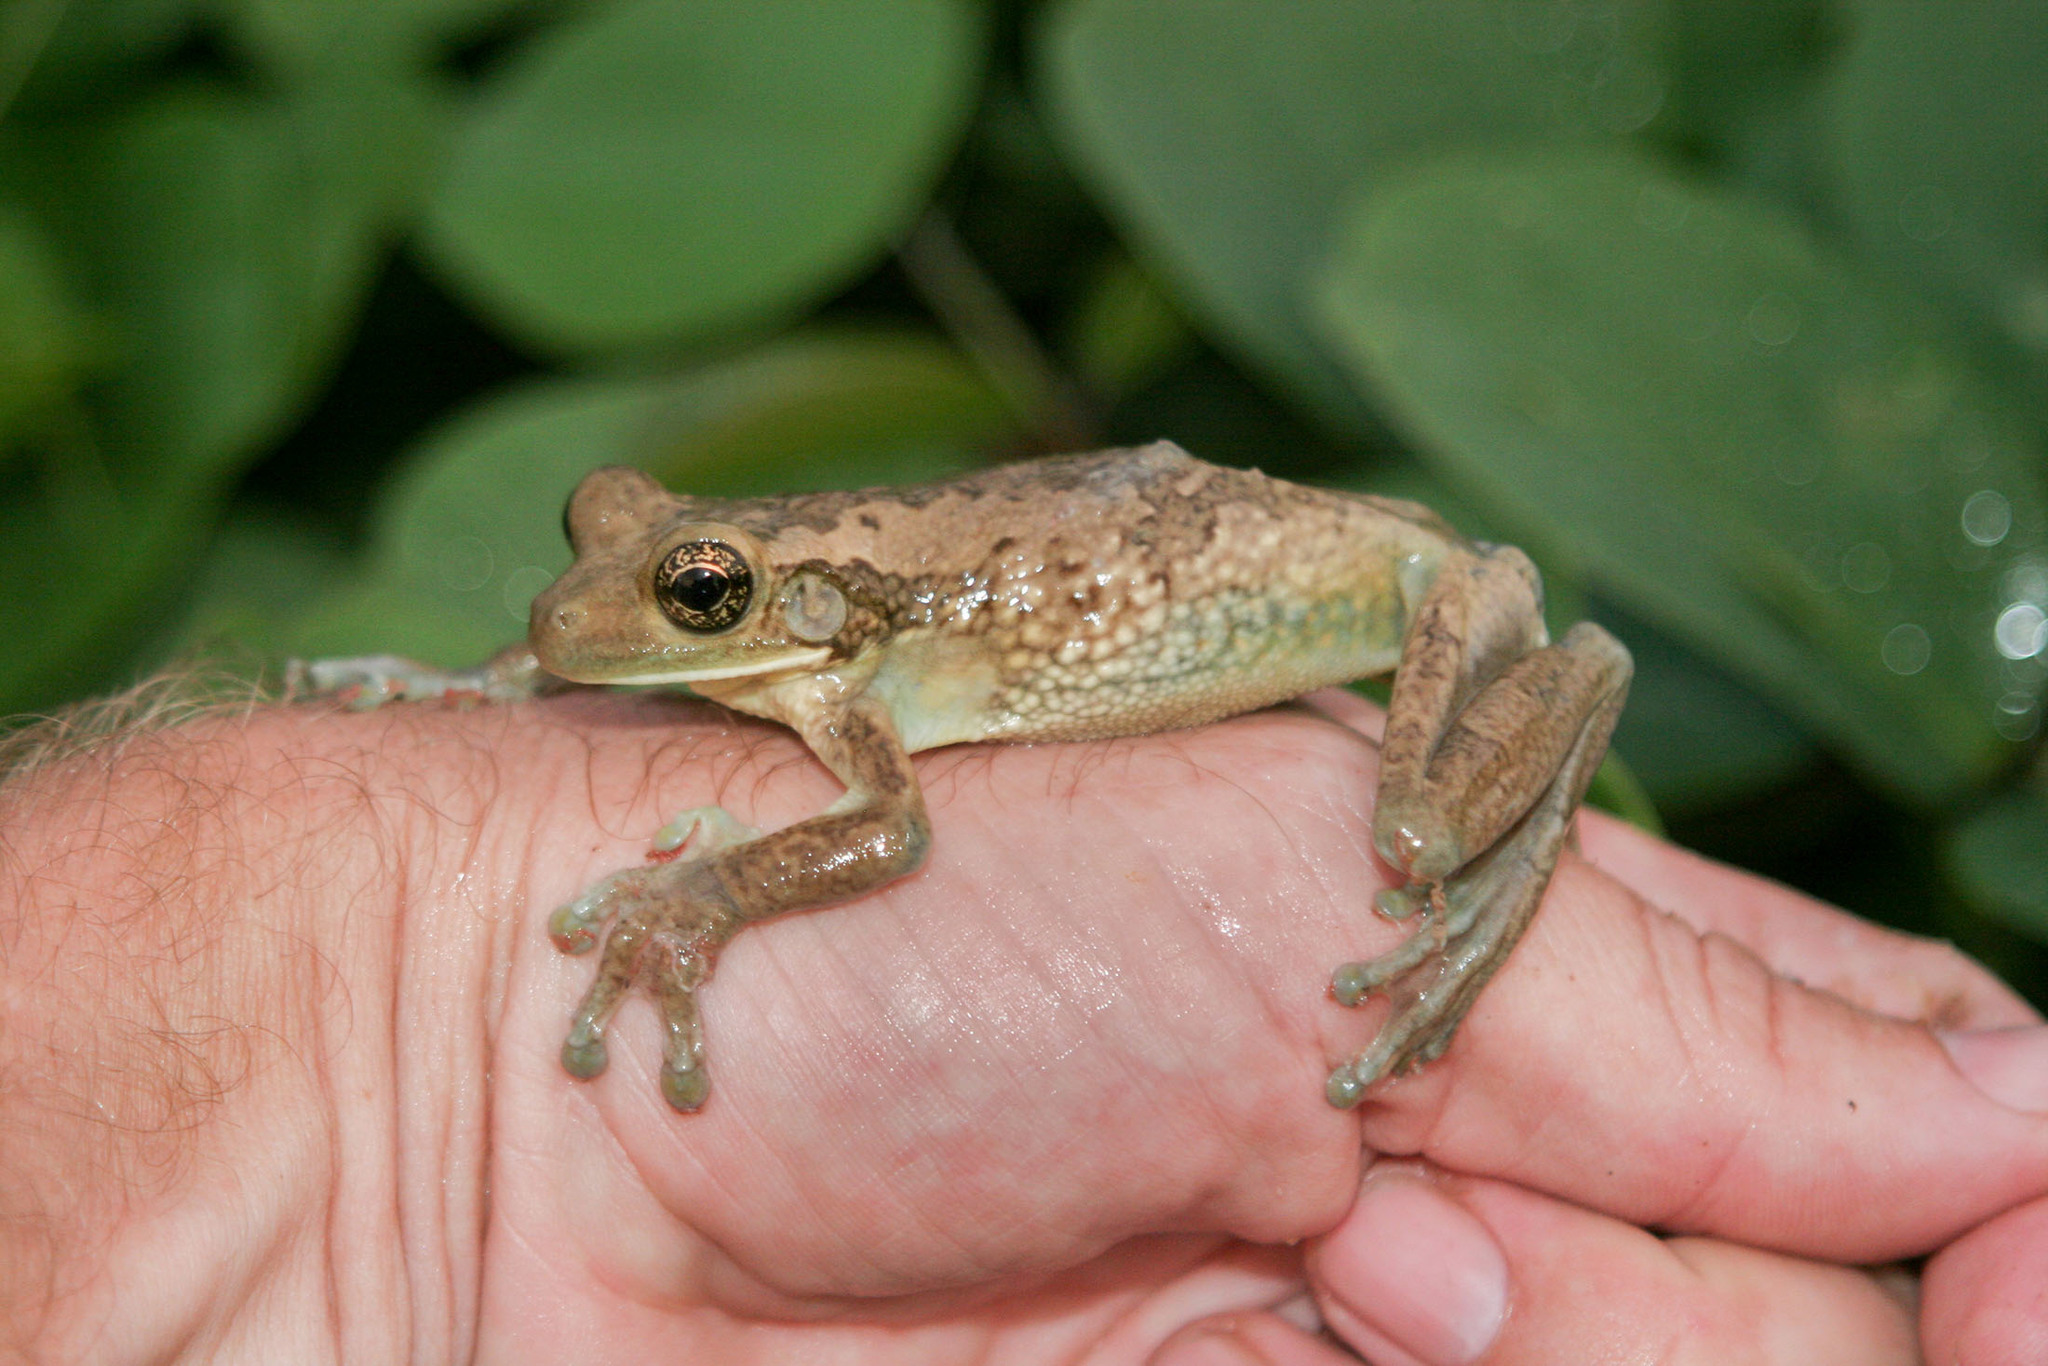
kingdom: Animalia
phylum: Chordata
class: Amphibia
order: Anura
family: Hylidae
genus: Trachycephalus
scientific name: Trachycephalus typhonius
